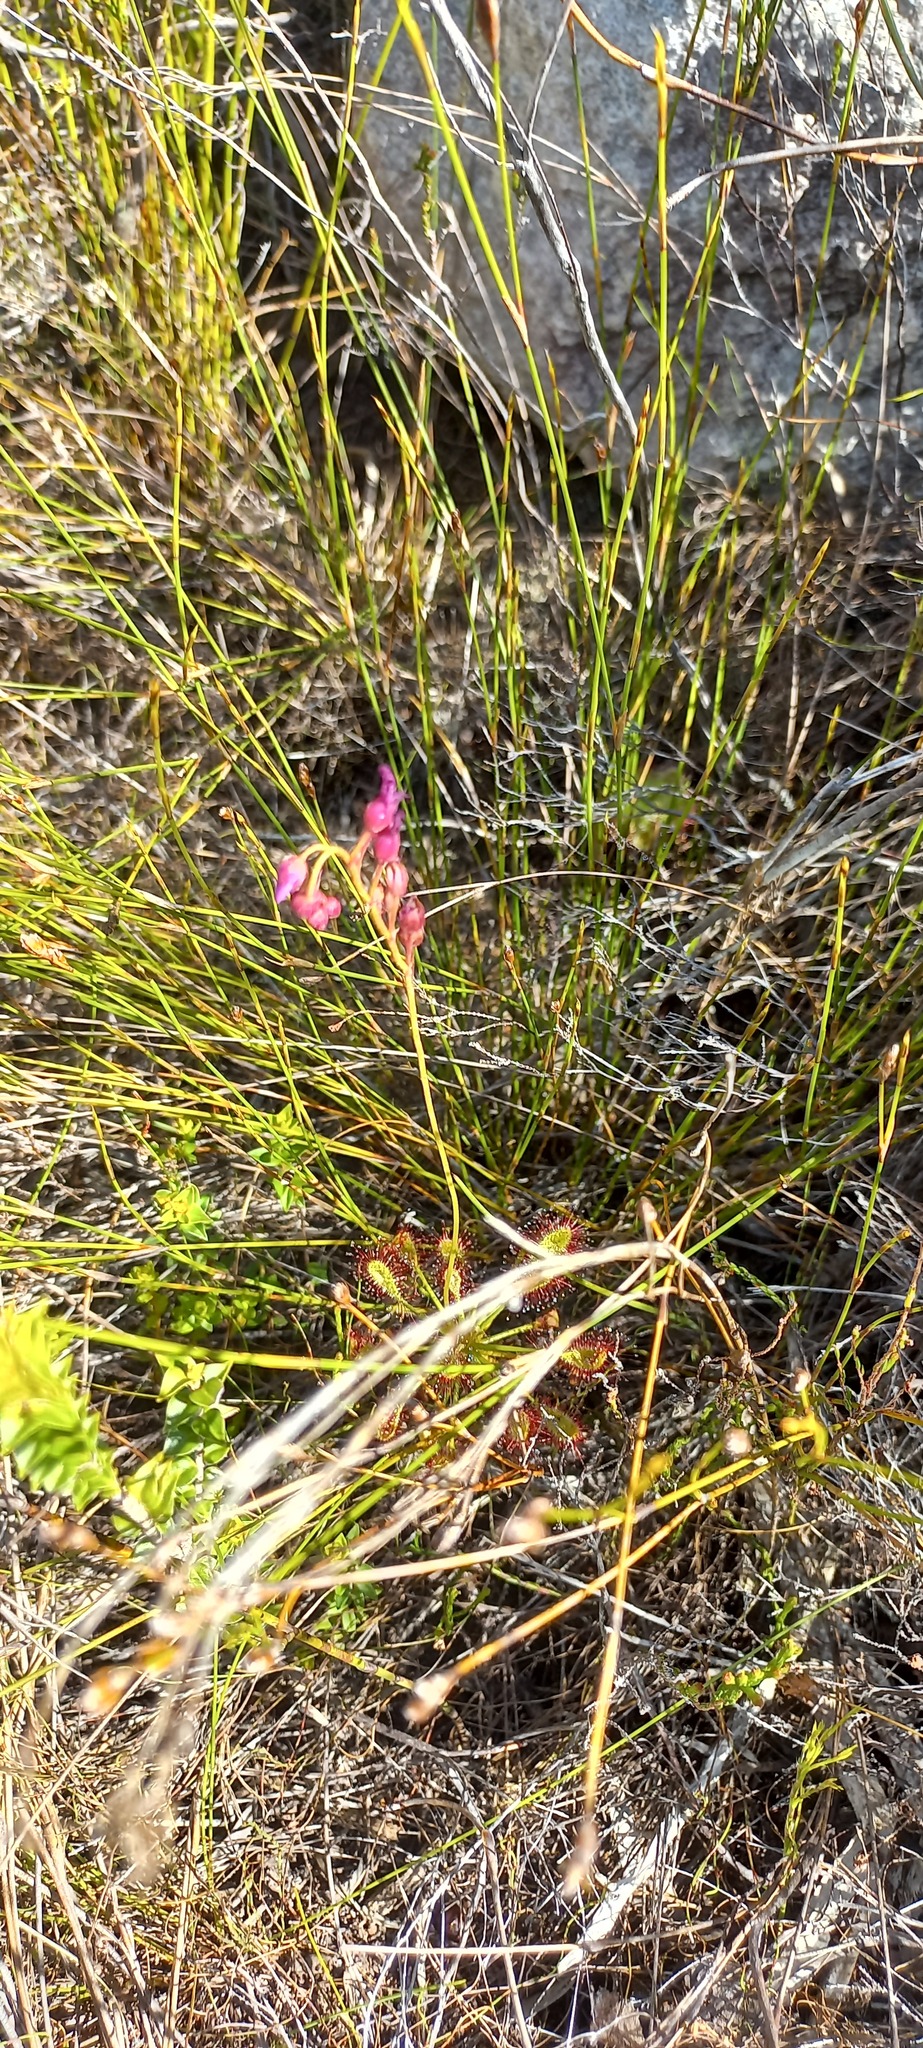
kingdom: Plantae
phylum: Tracheophyta
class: Magnoliopsida
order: Caryophyllales
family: Droseraceae
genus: Drosera
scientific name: Drosera glabripes
